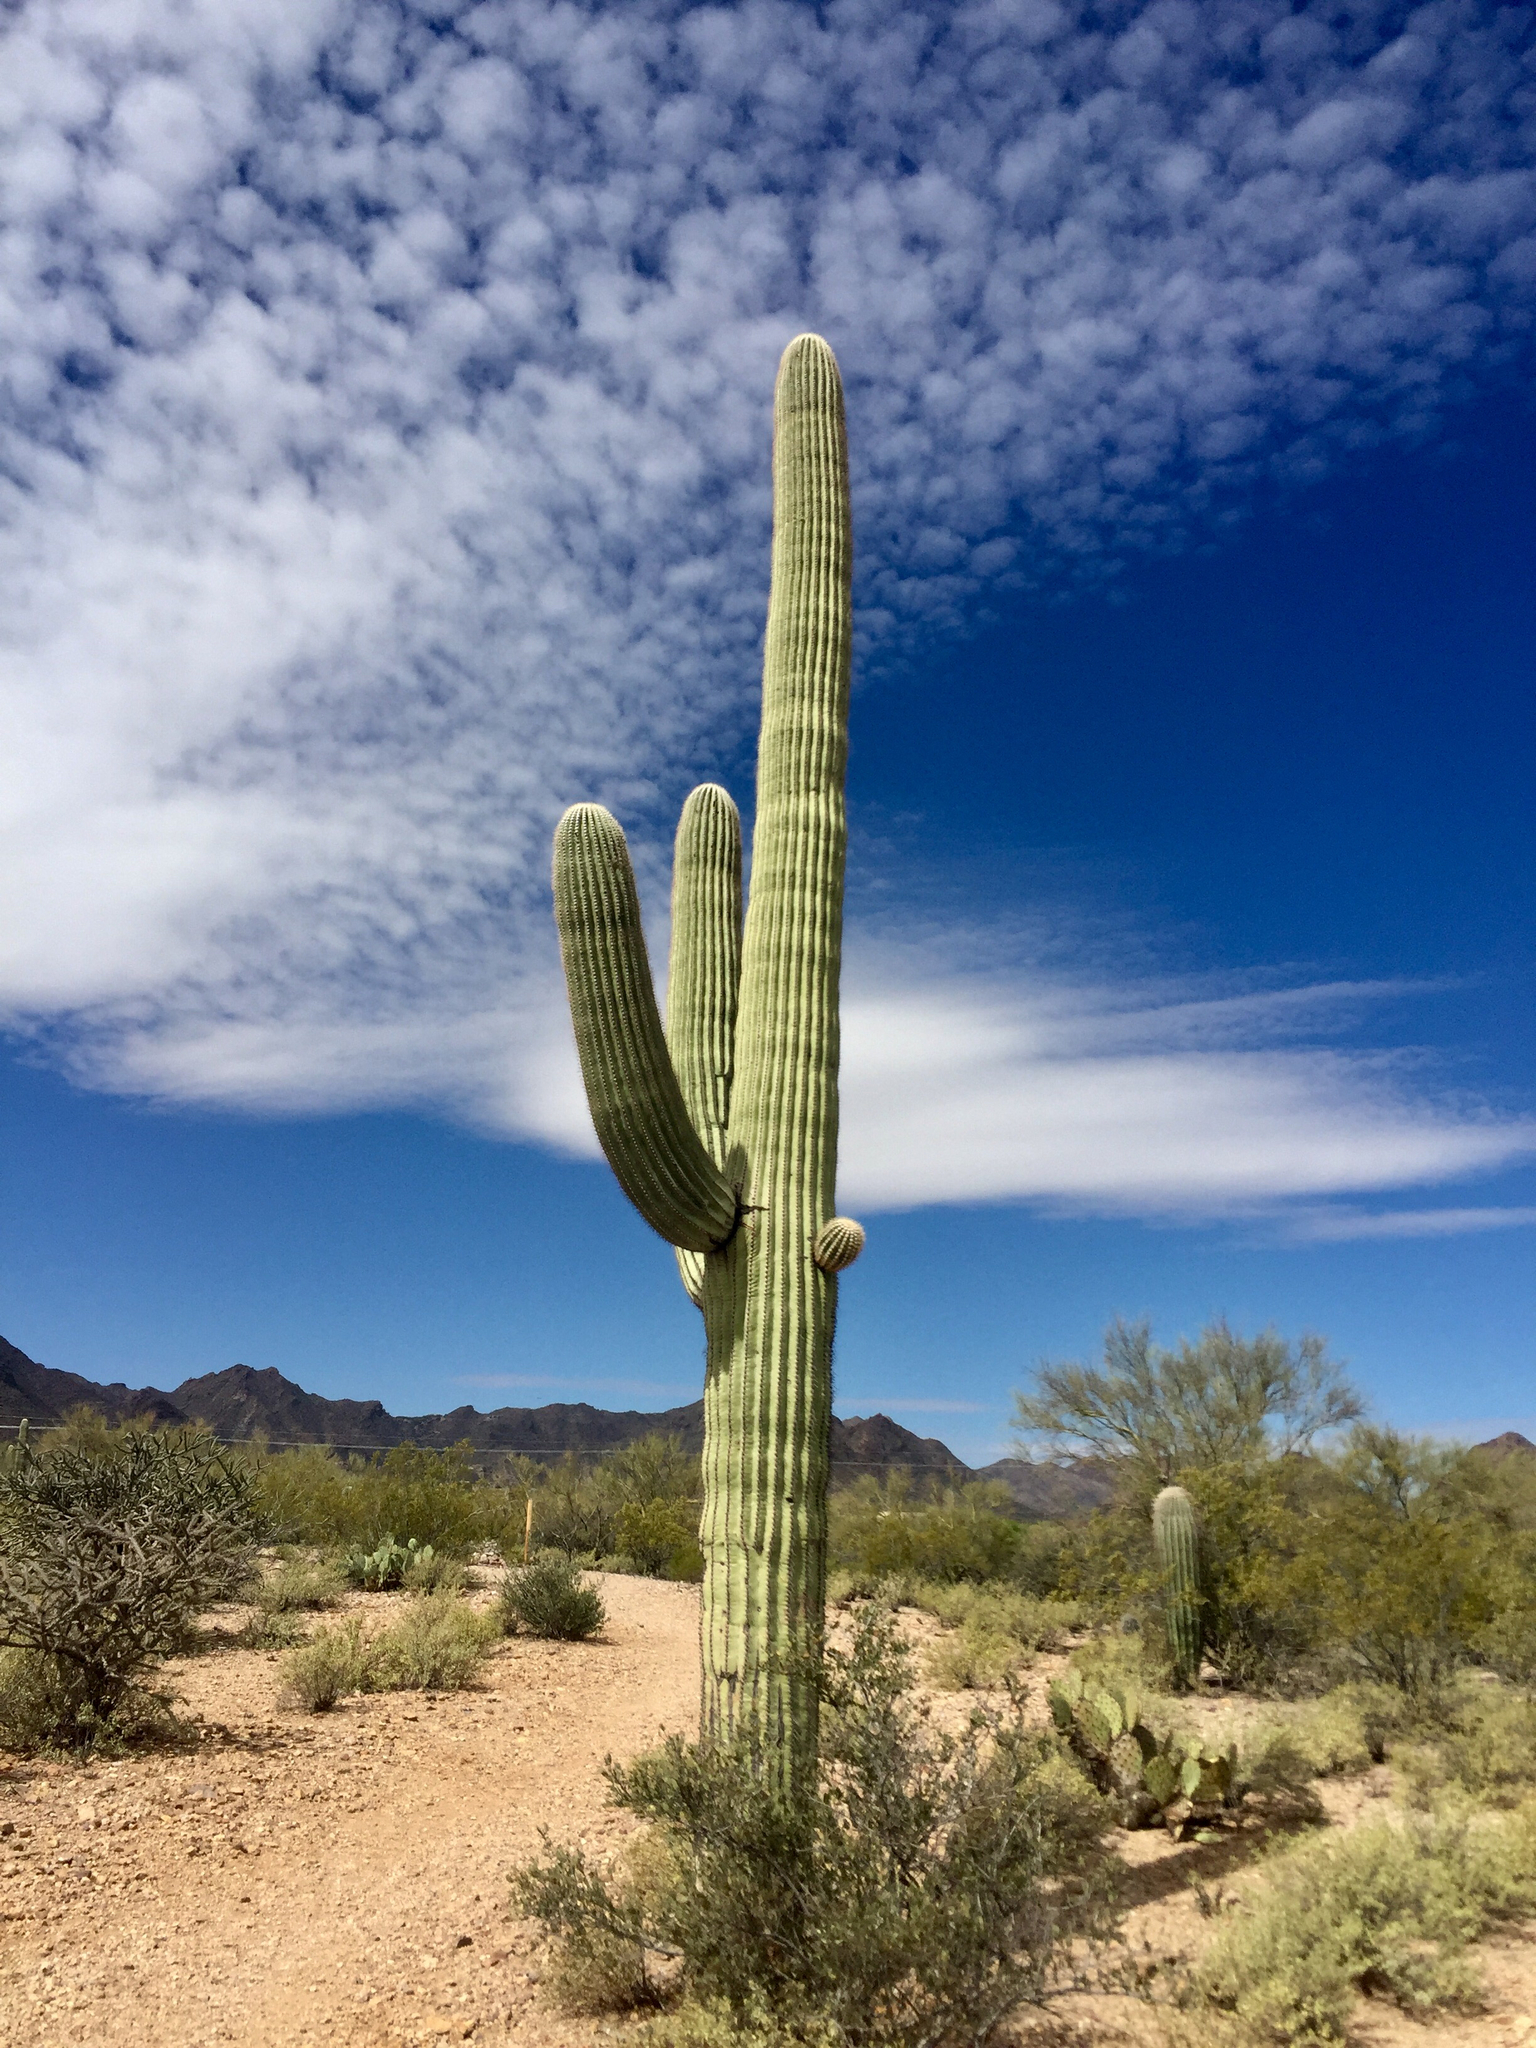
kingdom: Plantae
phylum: Tracheophyta
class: Magnoliopsida
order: Caryophyllales
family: Cactaceae
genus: Carnegiea
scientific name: Carnegiea gigantea
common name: Saguaro
